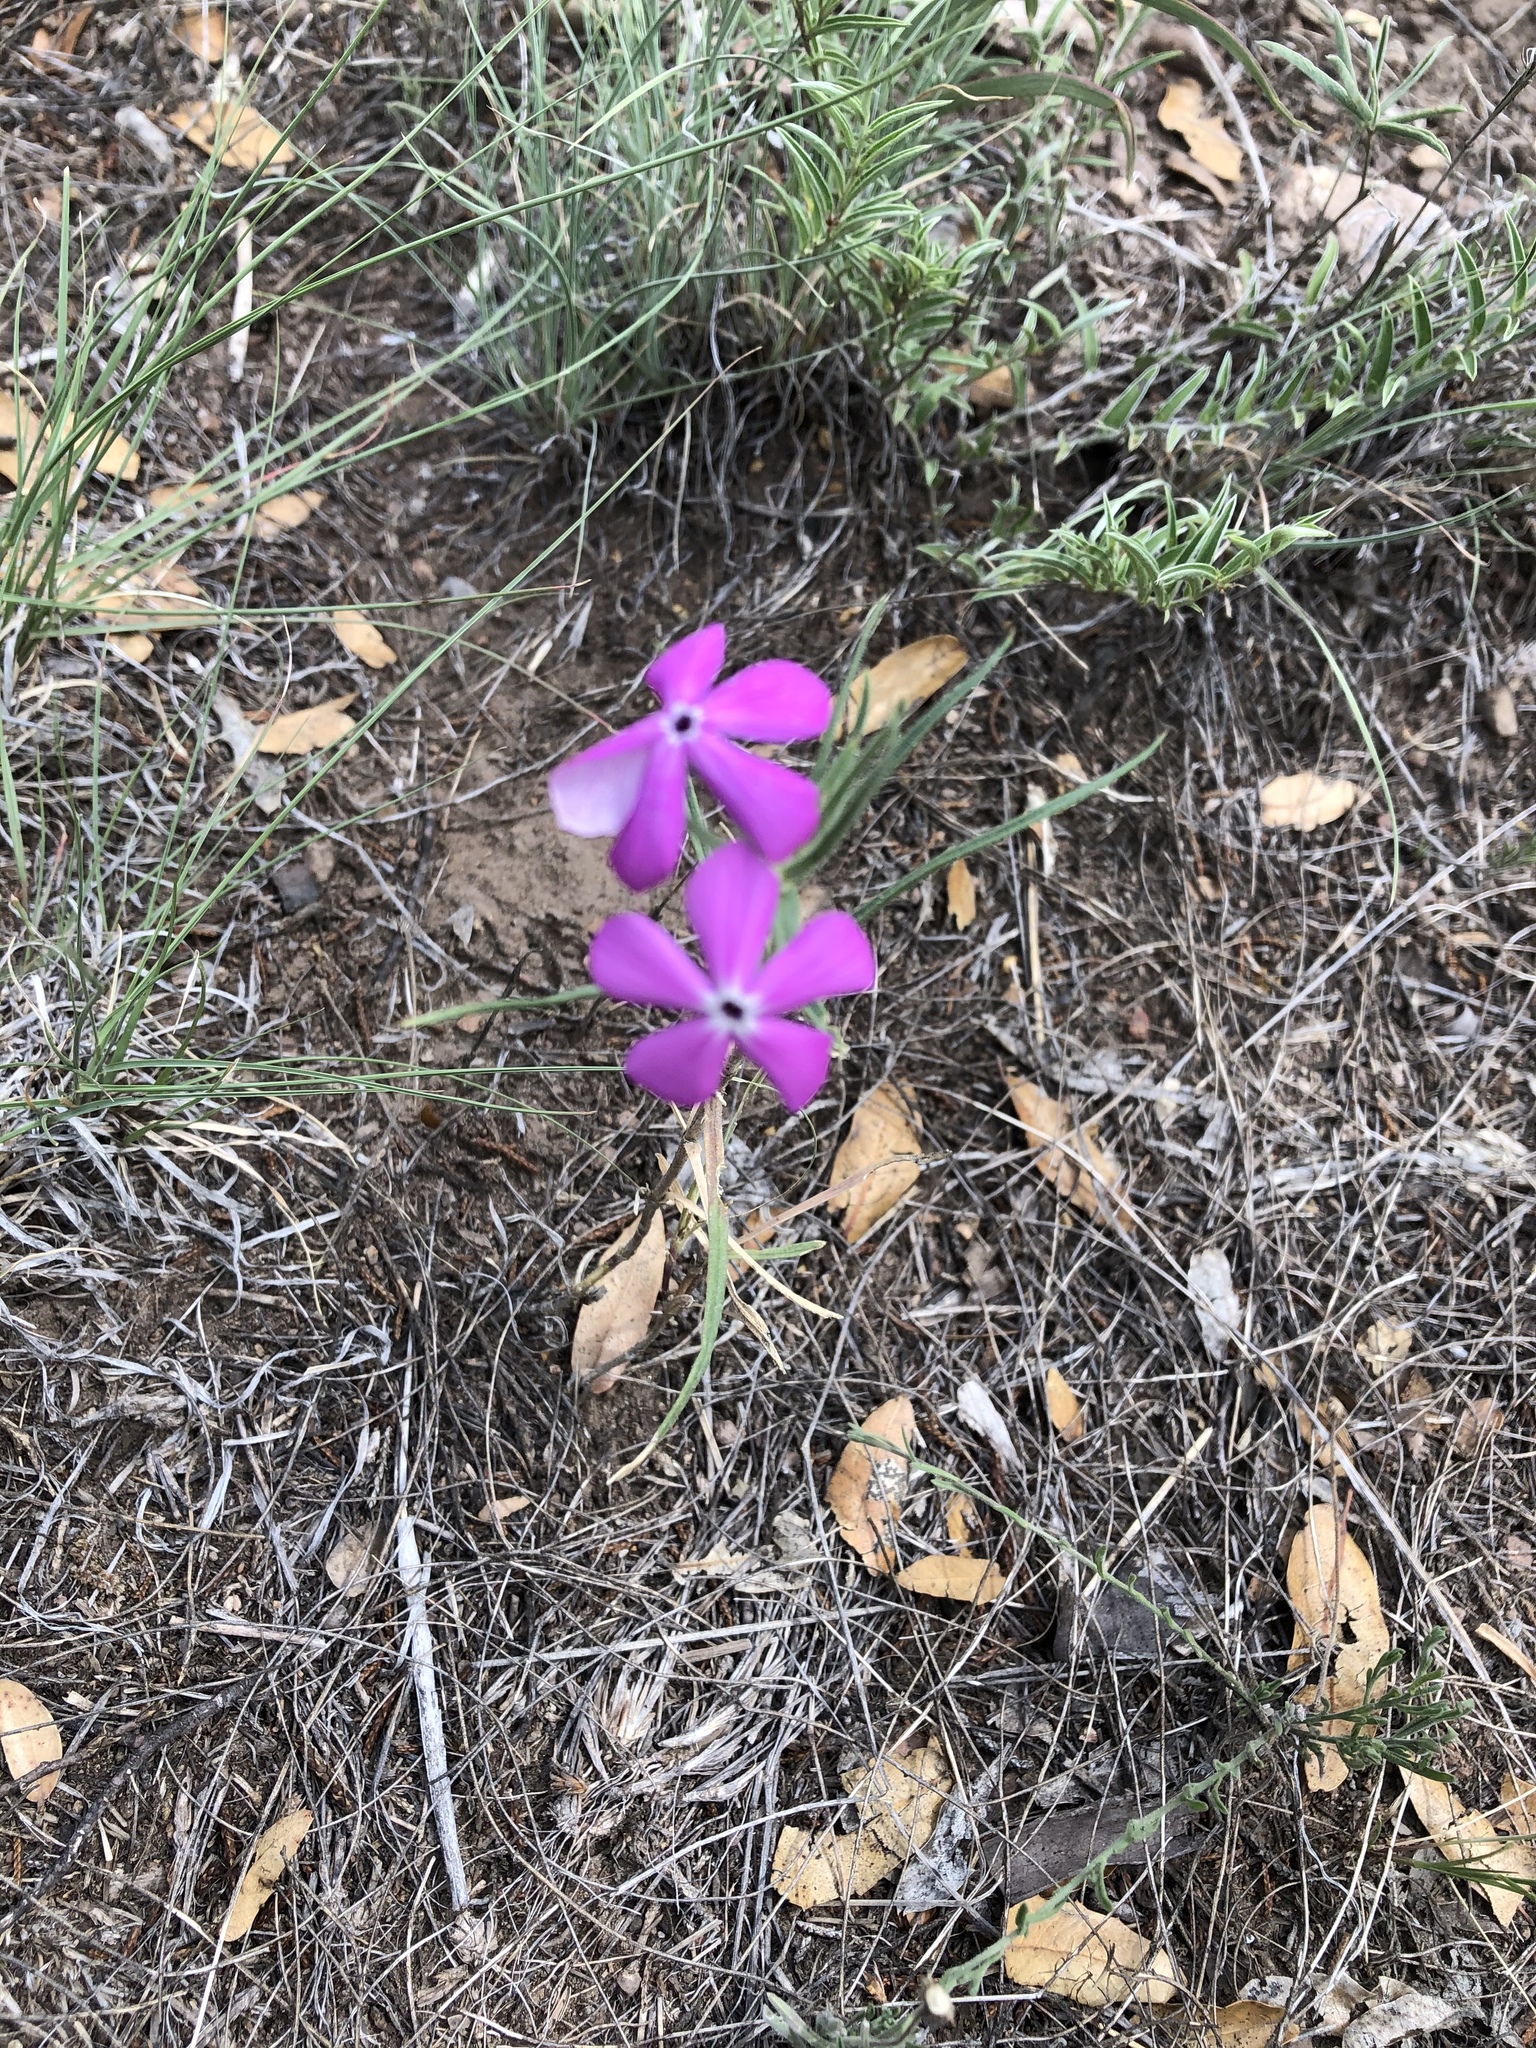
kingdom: Plantae
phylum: Tracheophyta
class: Magnoliopsida
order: Ericales
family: Polemoniaceae
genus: Phlox
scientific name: Phlox nana
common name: Santa fe phlox
